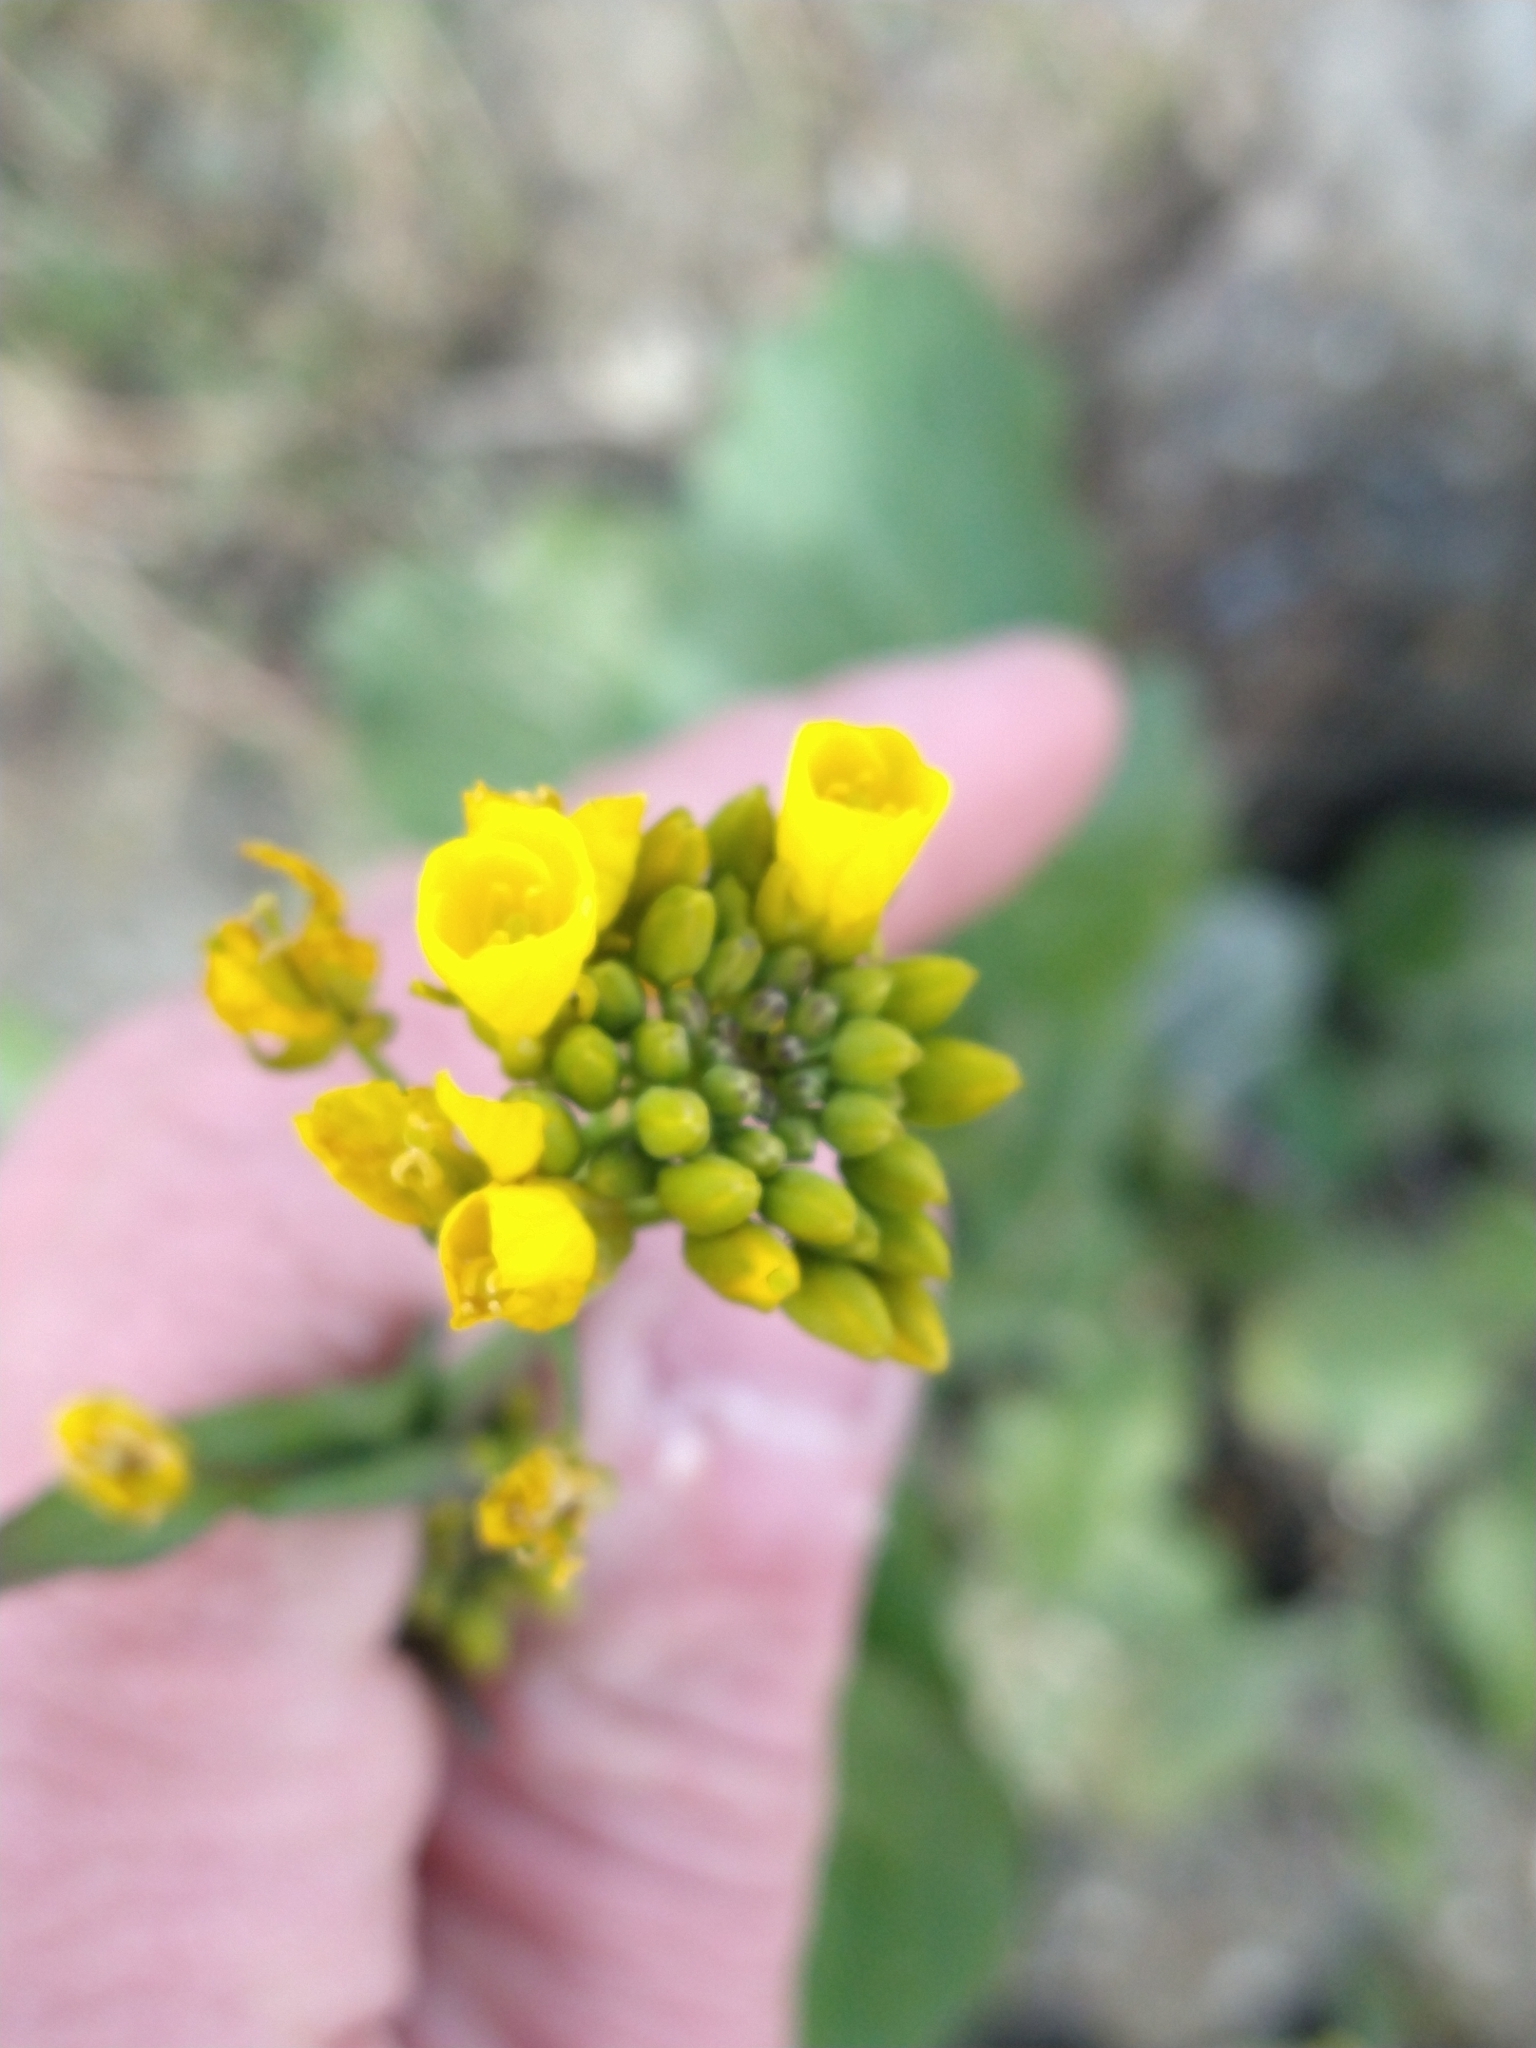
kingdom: Plantae
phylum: Tracheophyta
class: Magnoliopsida
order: Brassicales
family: Brassicaceae
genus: Brassica
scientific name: Brassica rapa
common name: Field mustard
